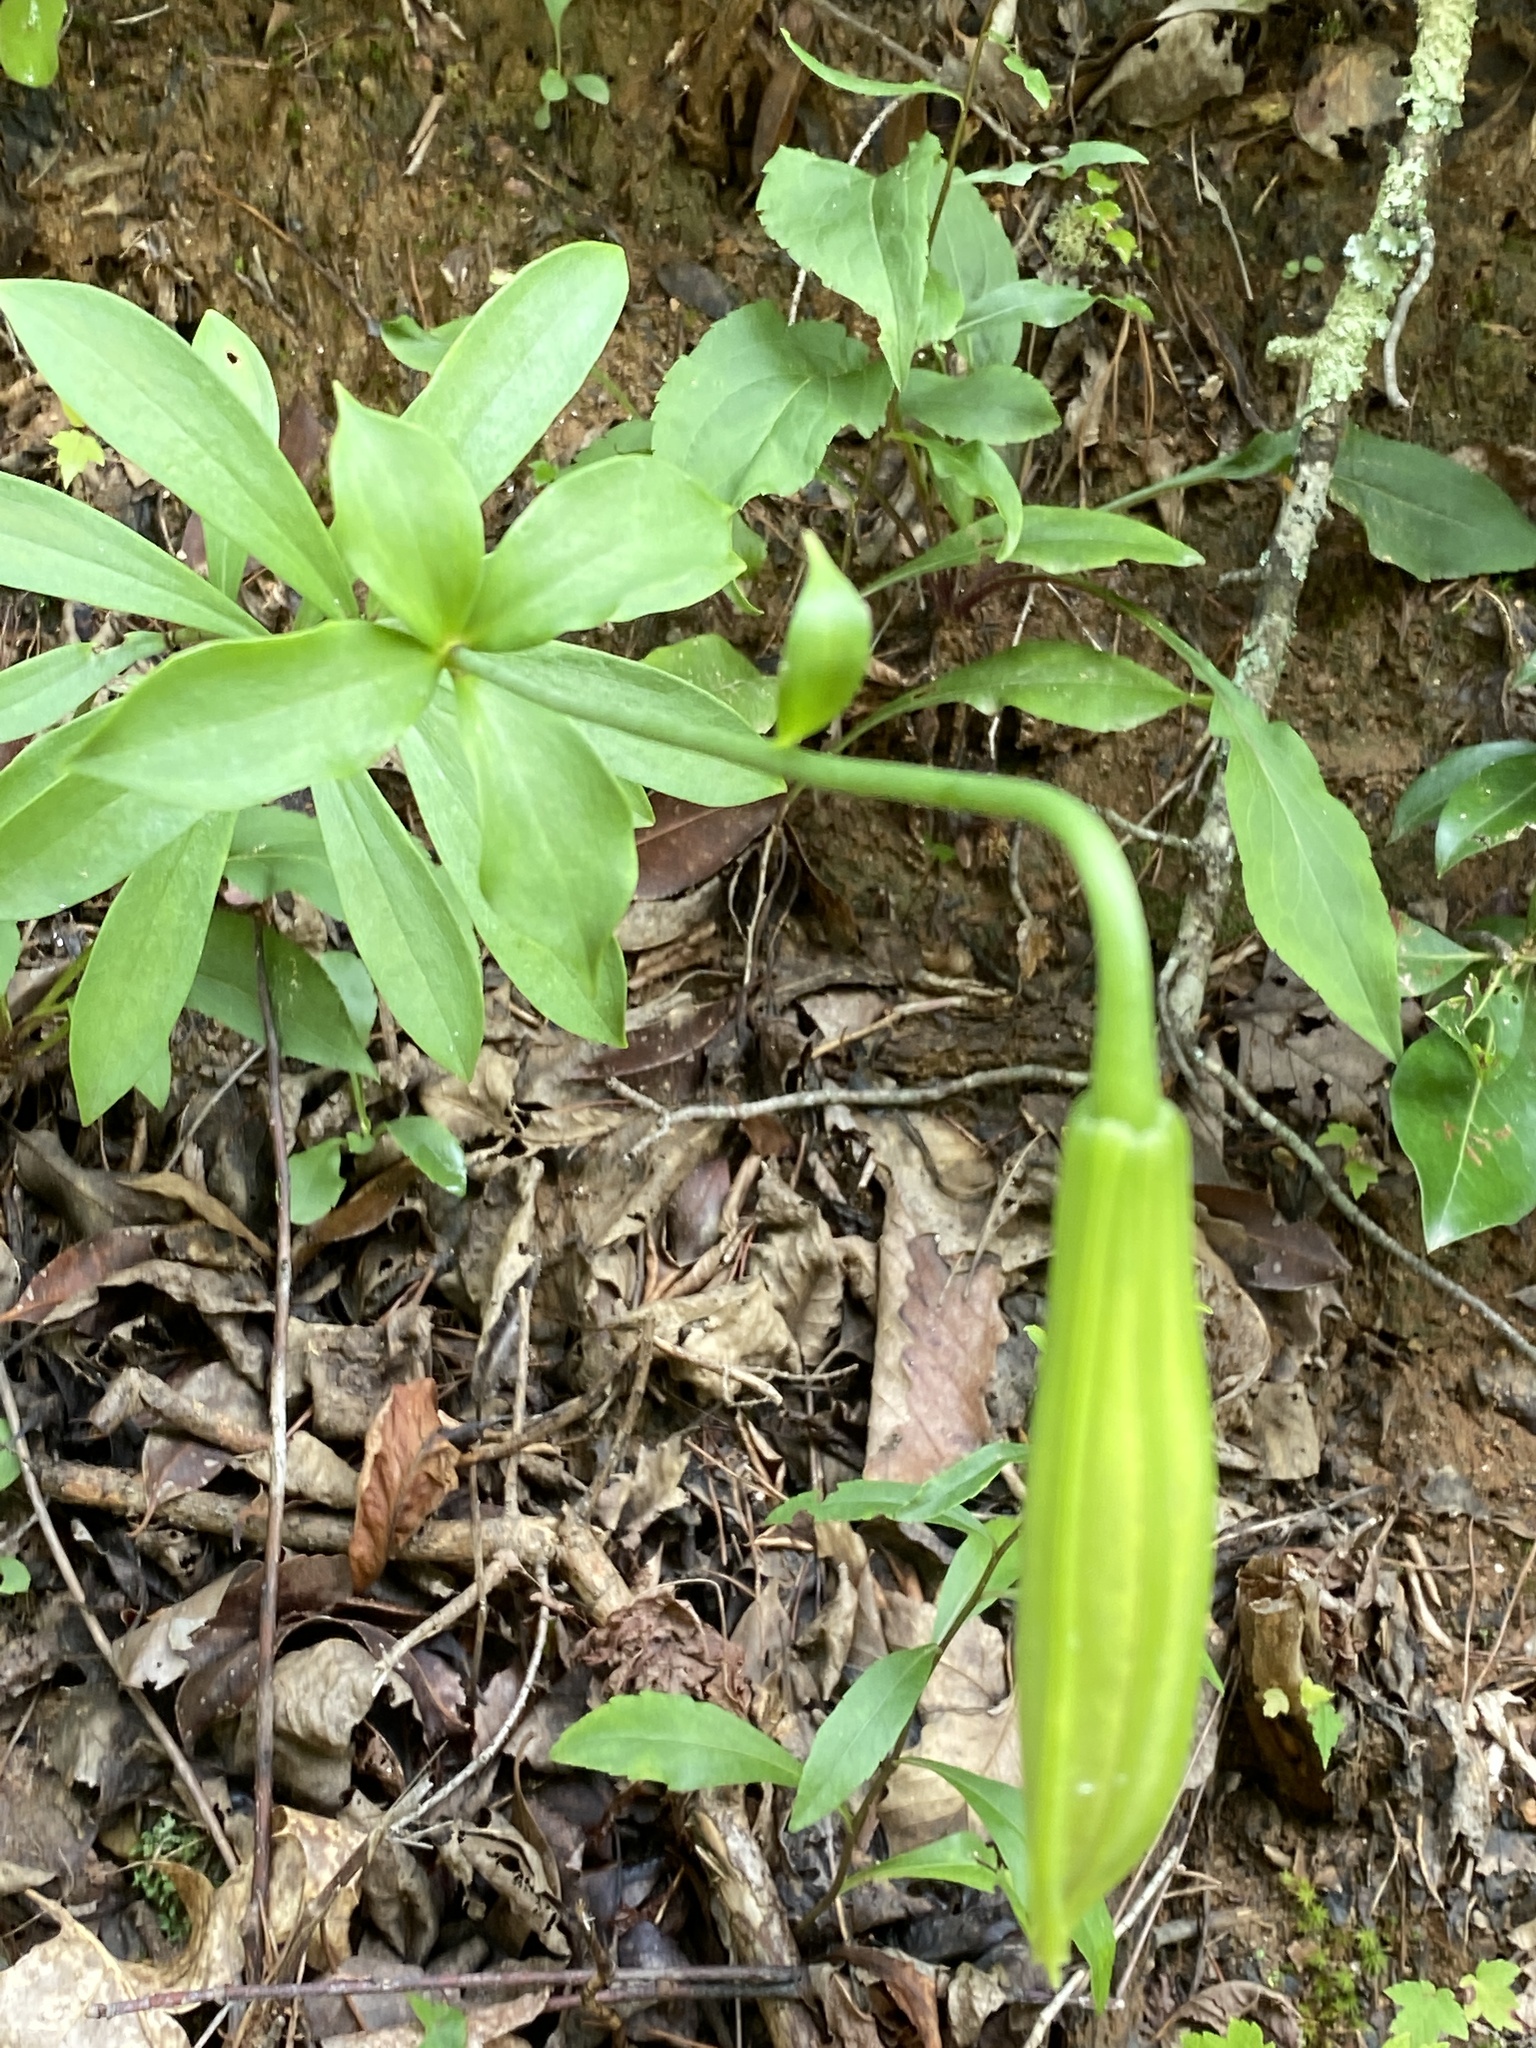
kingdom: Plantae
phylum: Tracheophyta
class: Liliopsida
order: Liliales
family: Liliaceae
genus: Lilium
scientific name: Lilium michauxii
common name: Carolina lily
